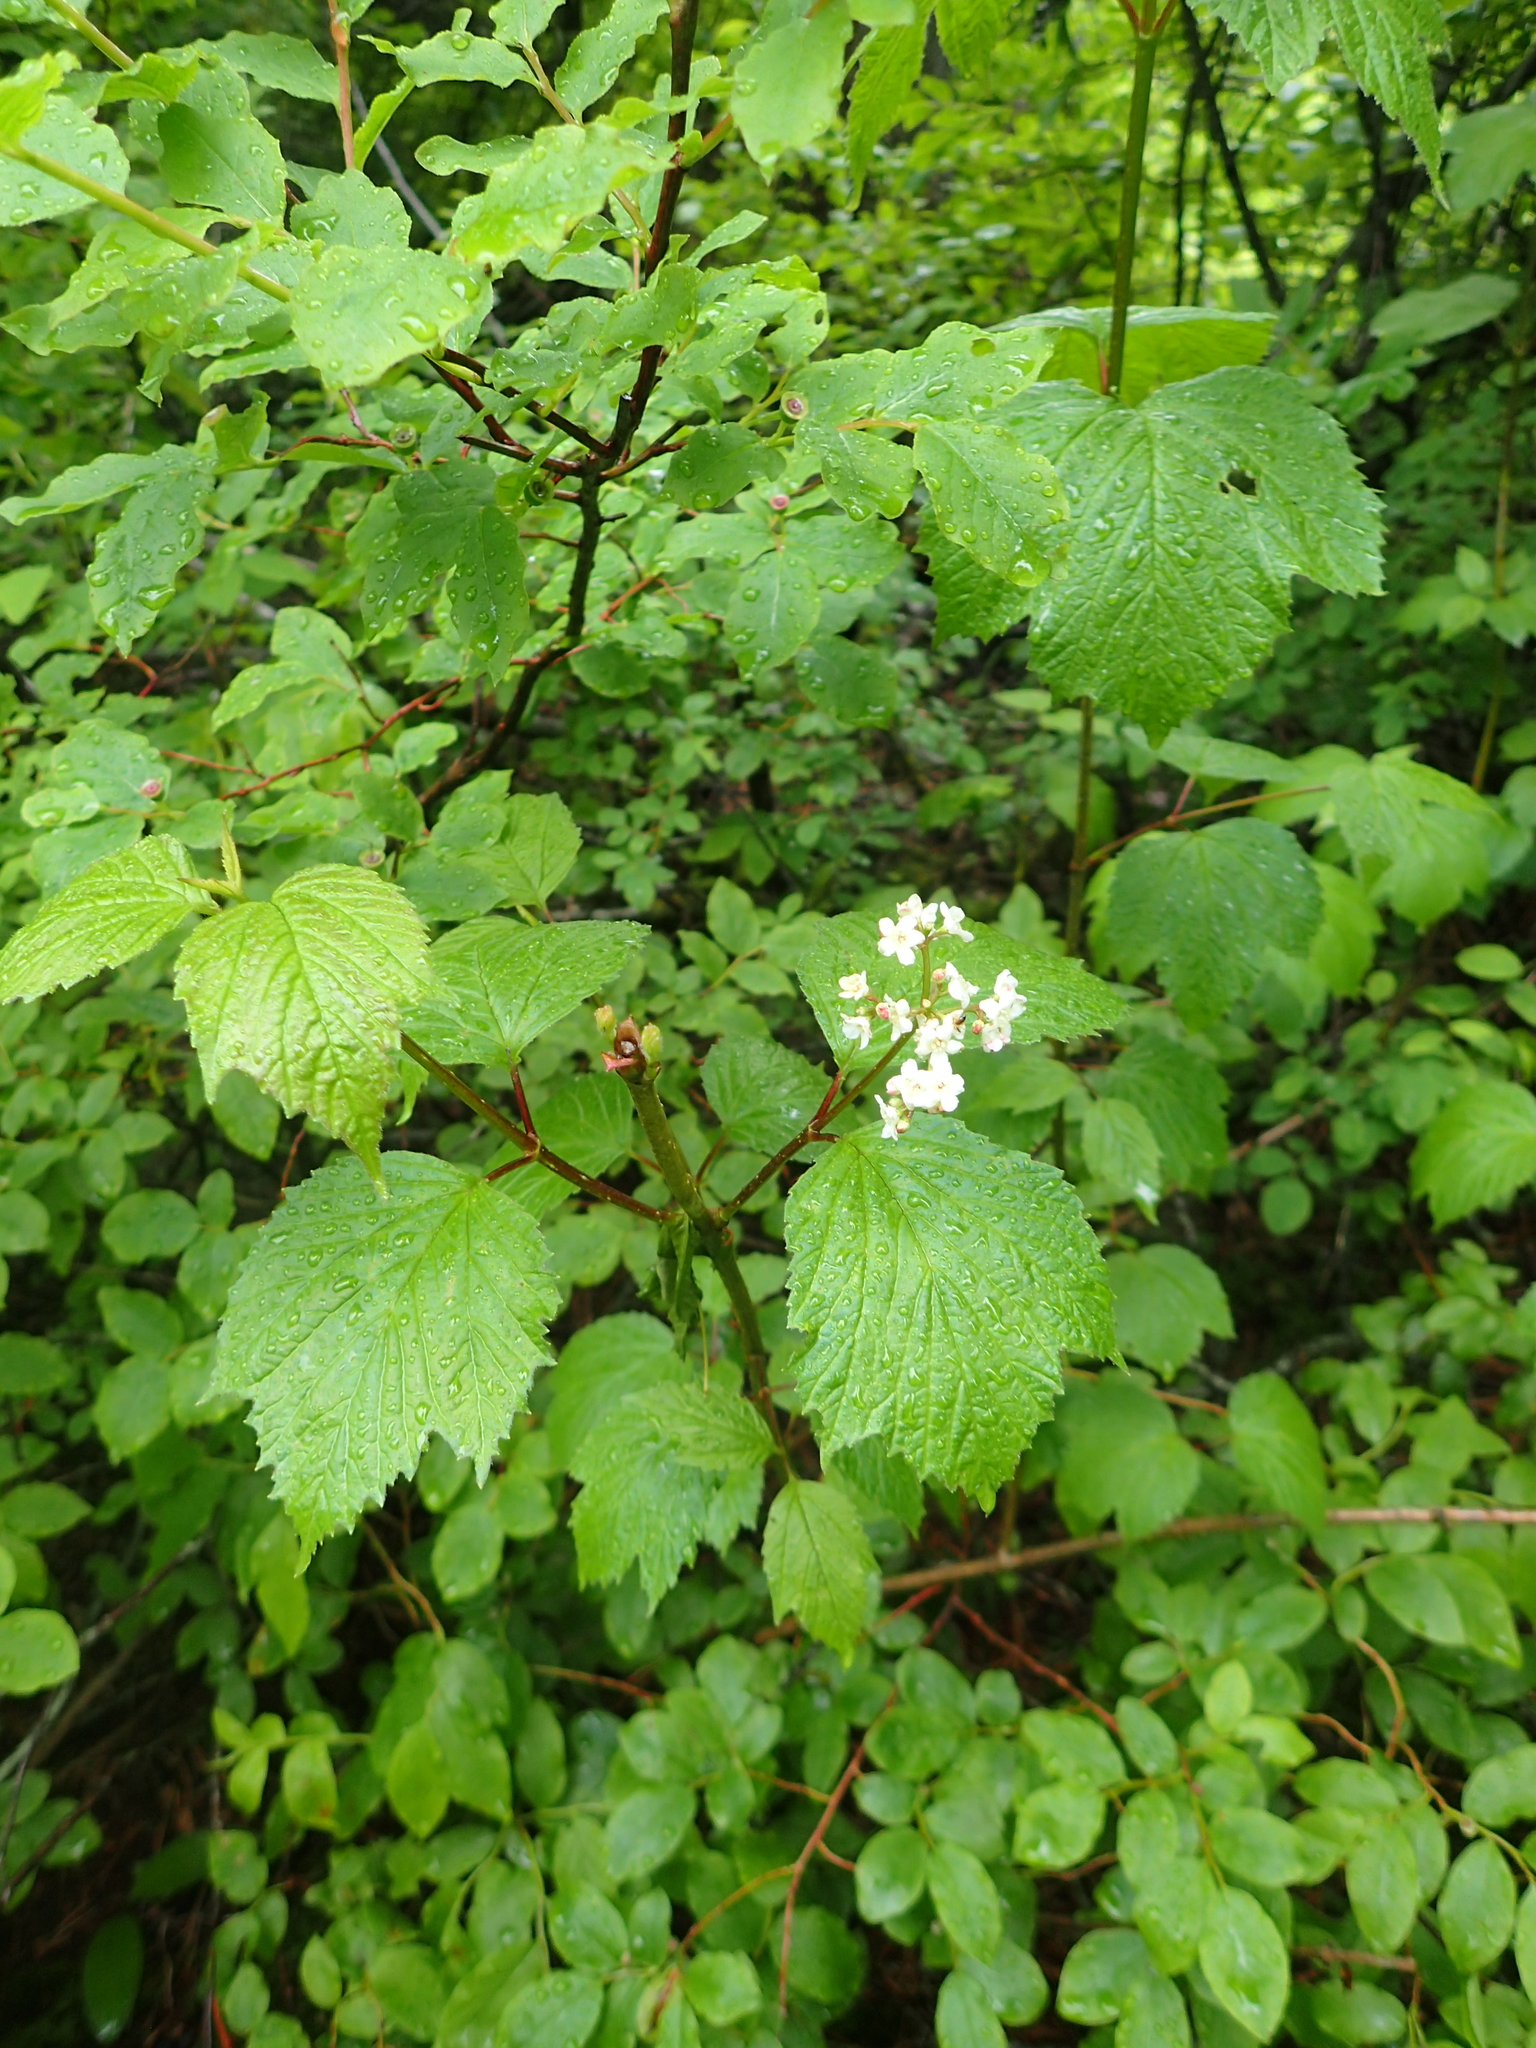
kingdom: Plantae
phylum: Tracheophyta
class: Magnoliopsida
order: Dipsacales
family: Viburnaceae
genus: Viburnum
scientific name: Viburnum edule
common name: Mooseberry
